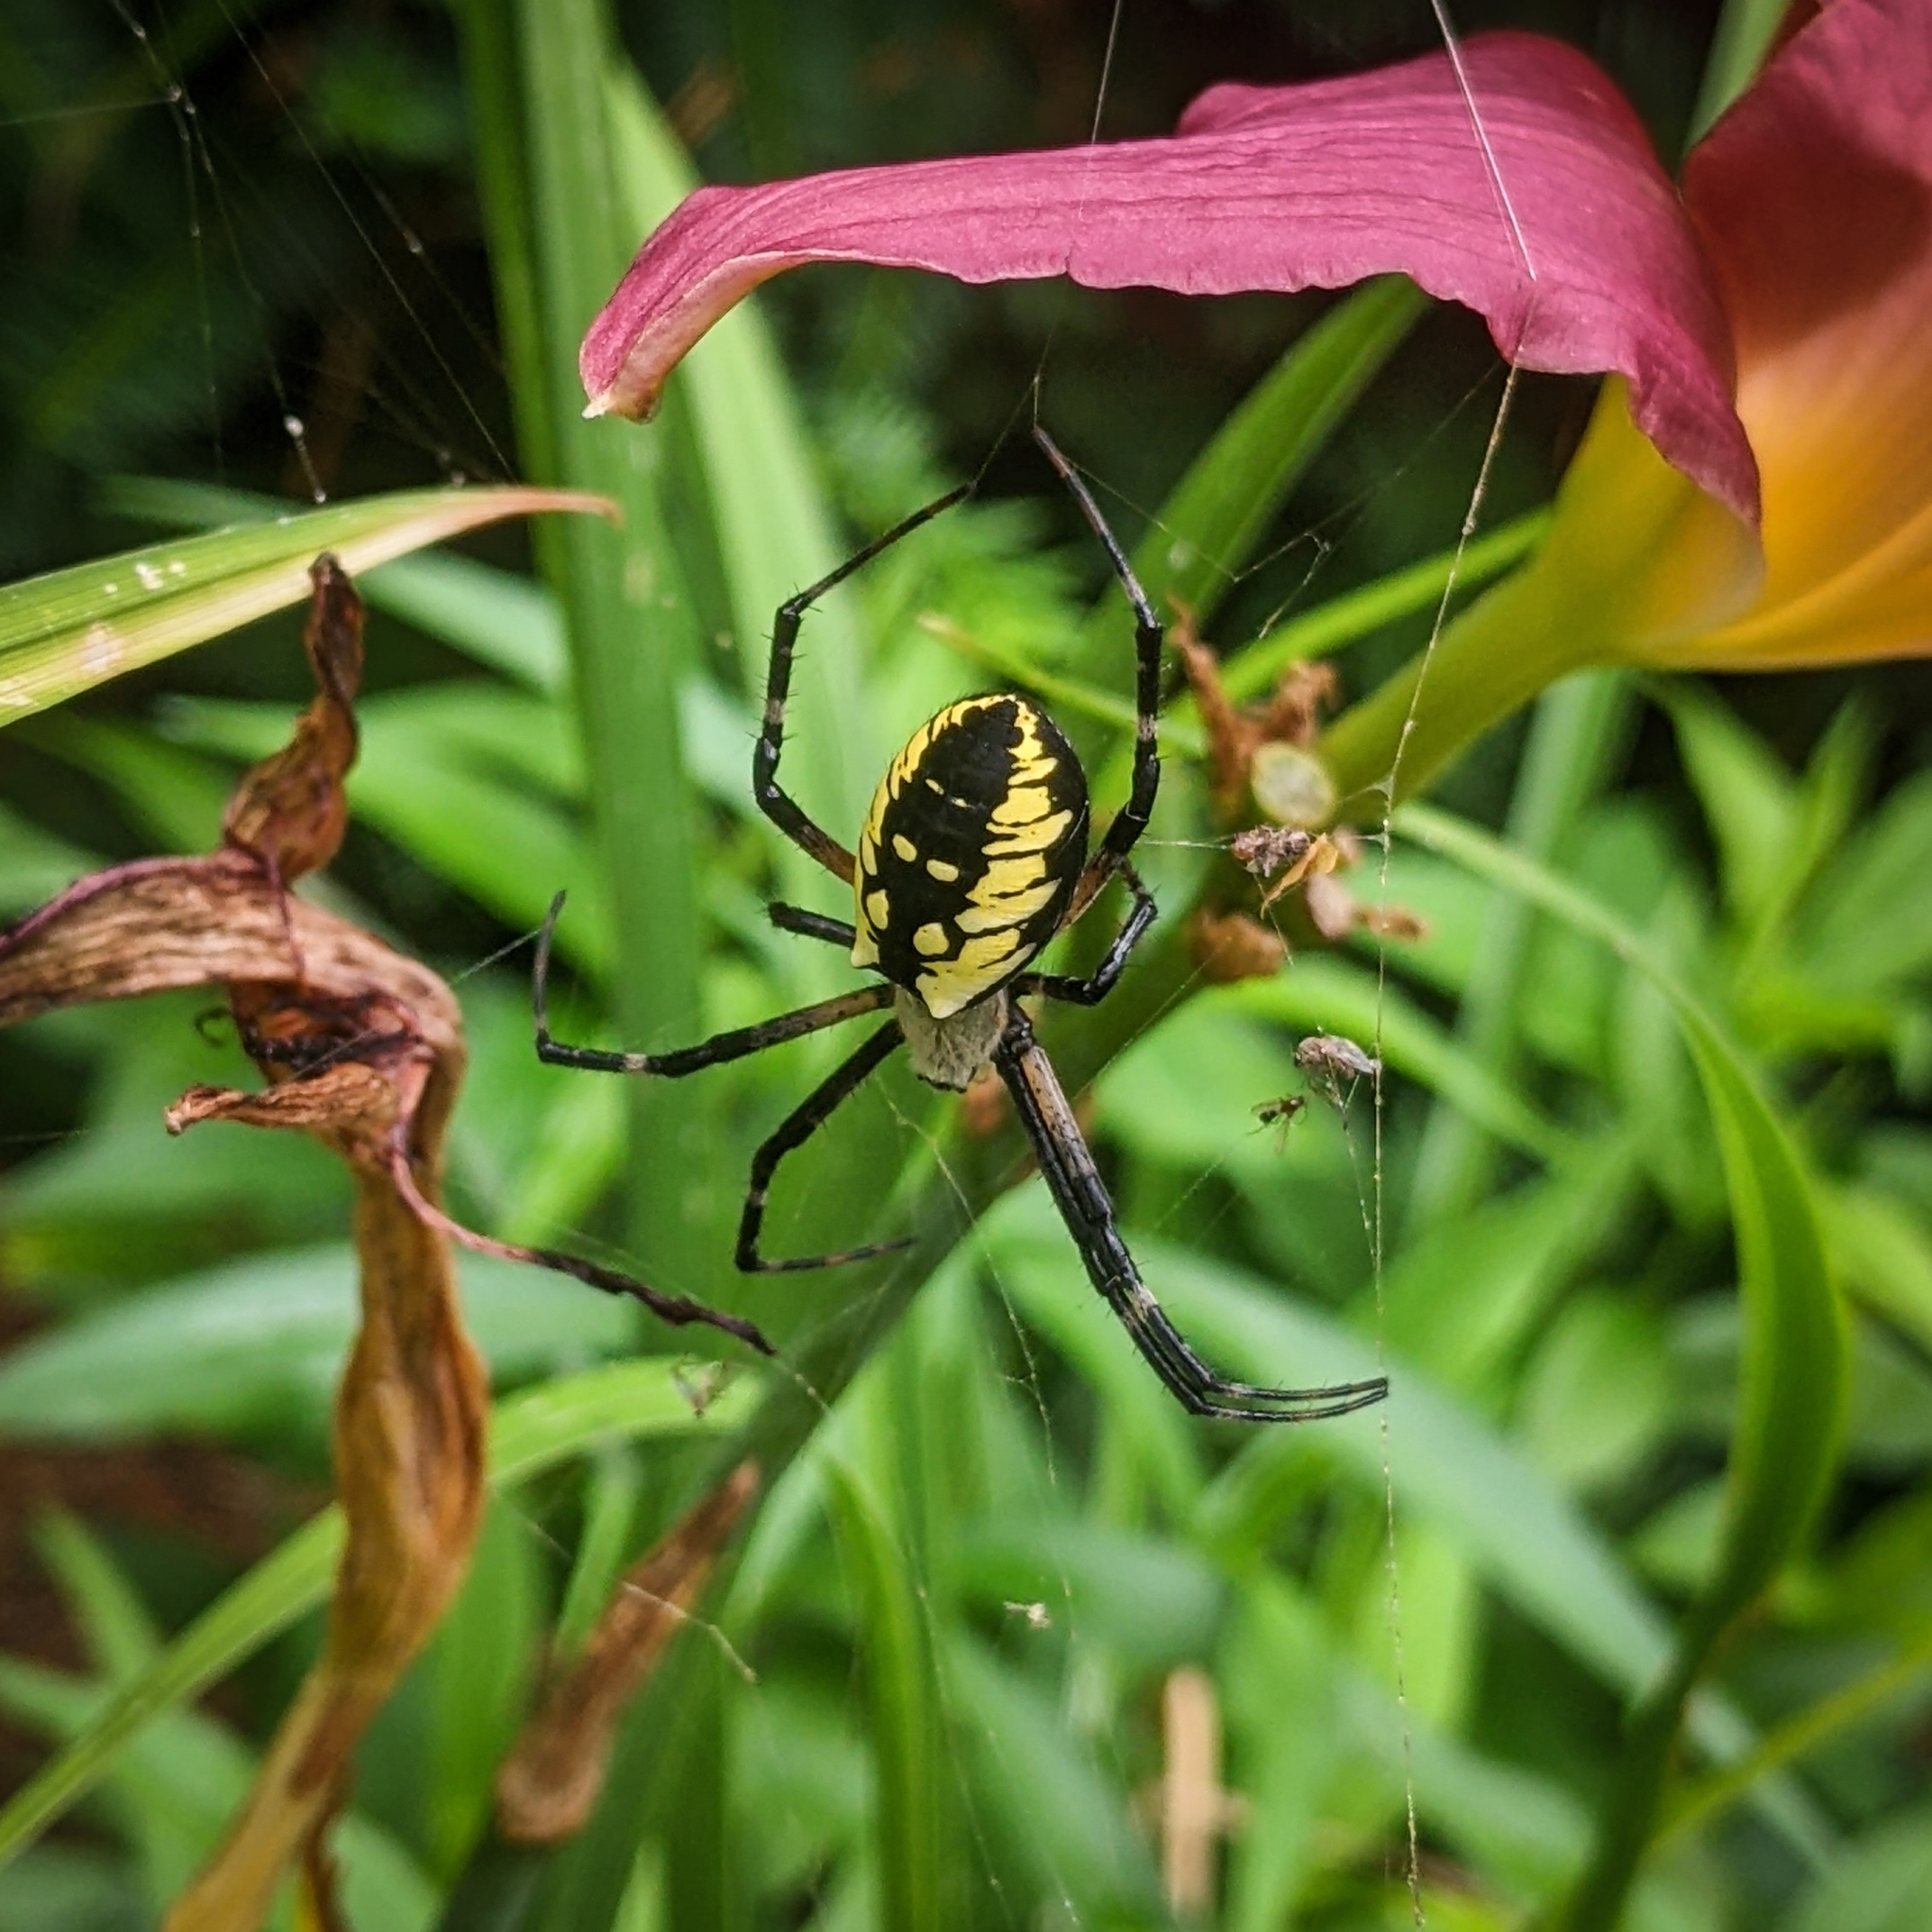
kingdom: Animalia
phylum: Arthropoda
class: Arachnida
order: Araneae
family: Araneidae
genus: Argiope
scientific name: Argiope aurantia
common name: Orb weavers
